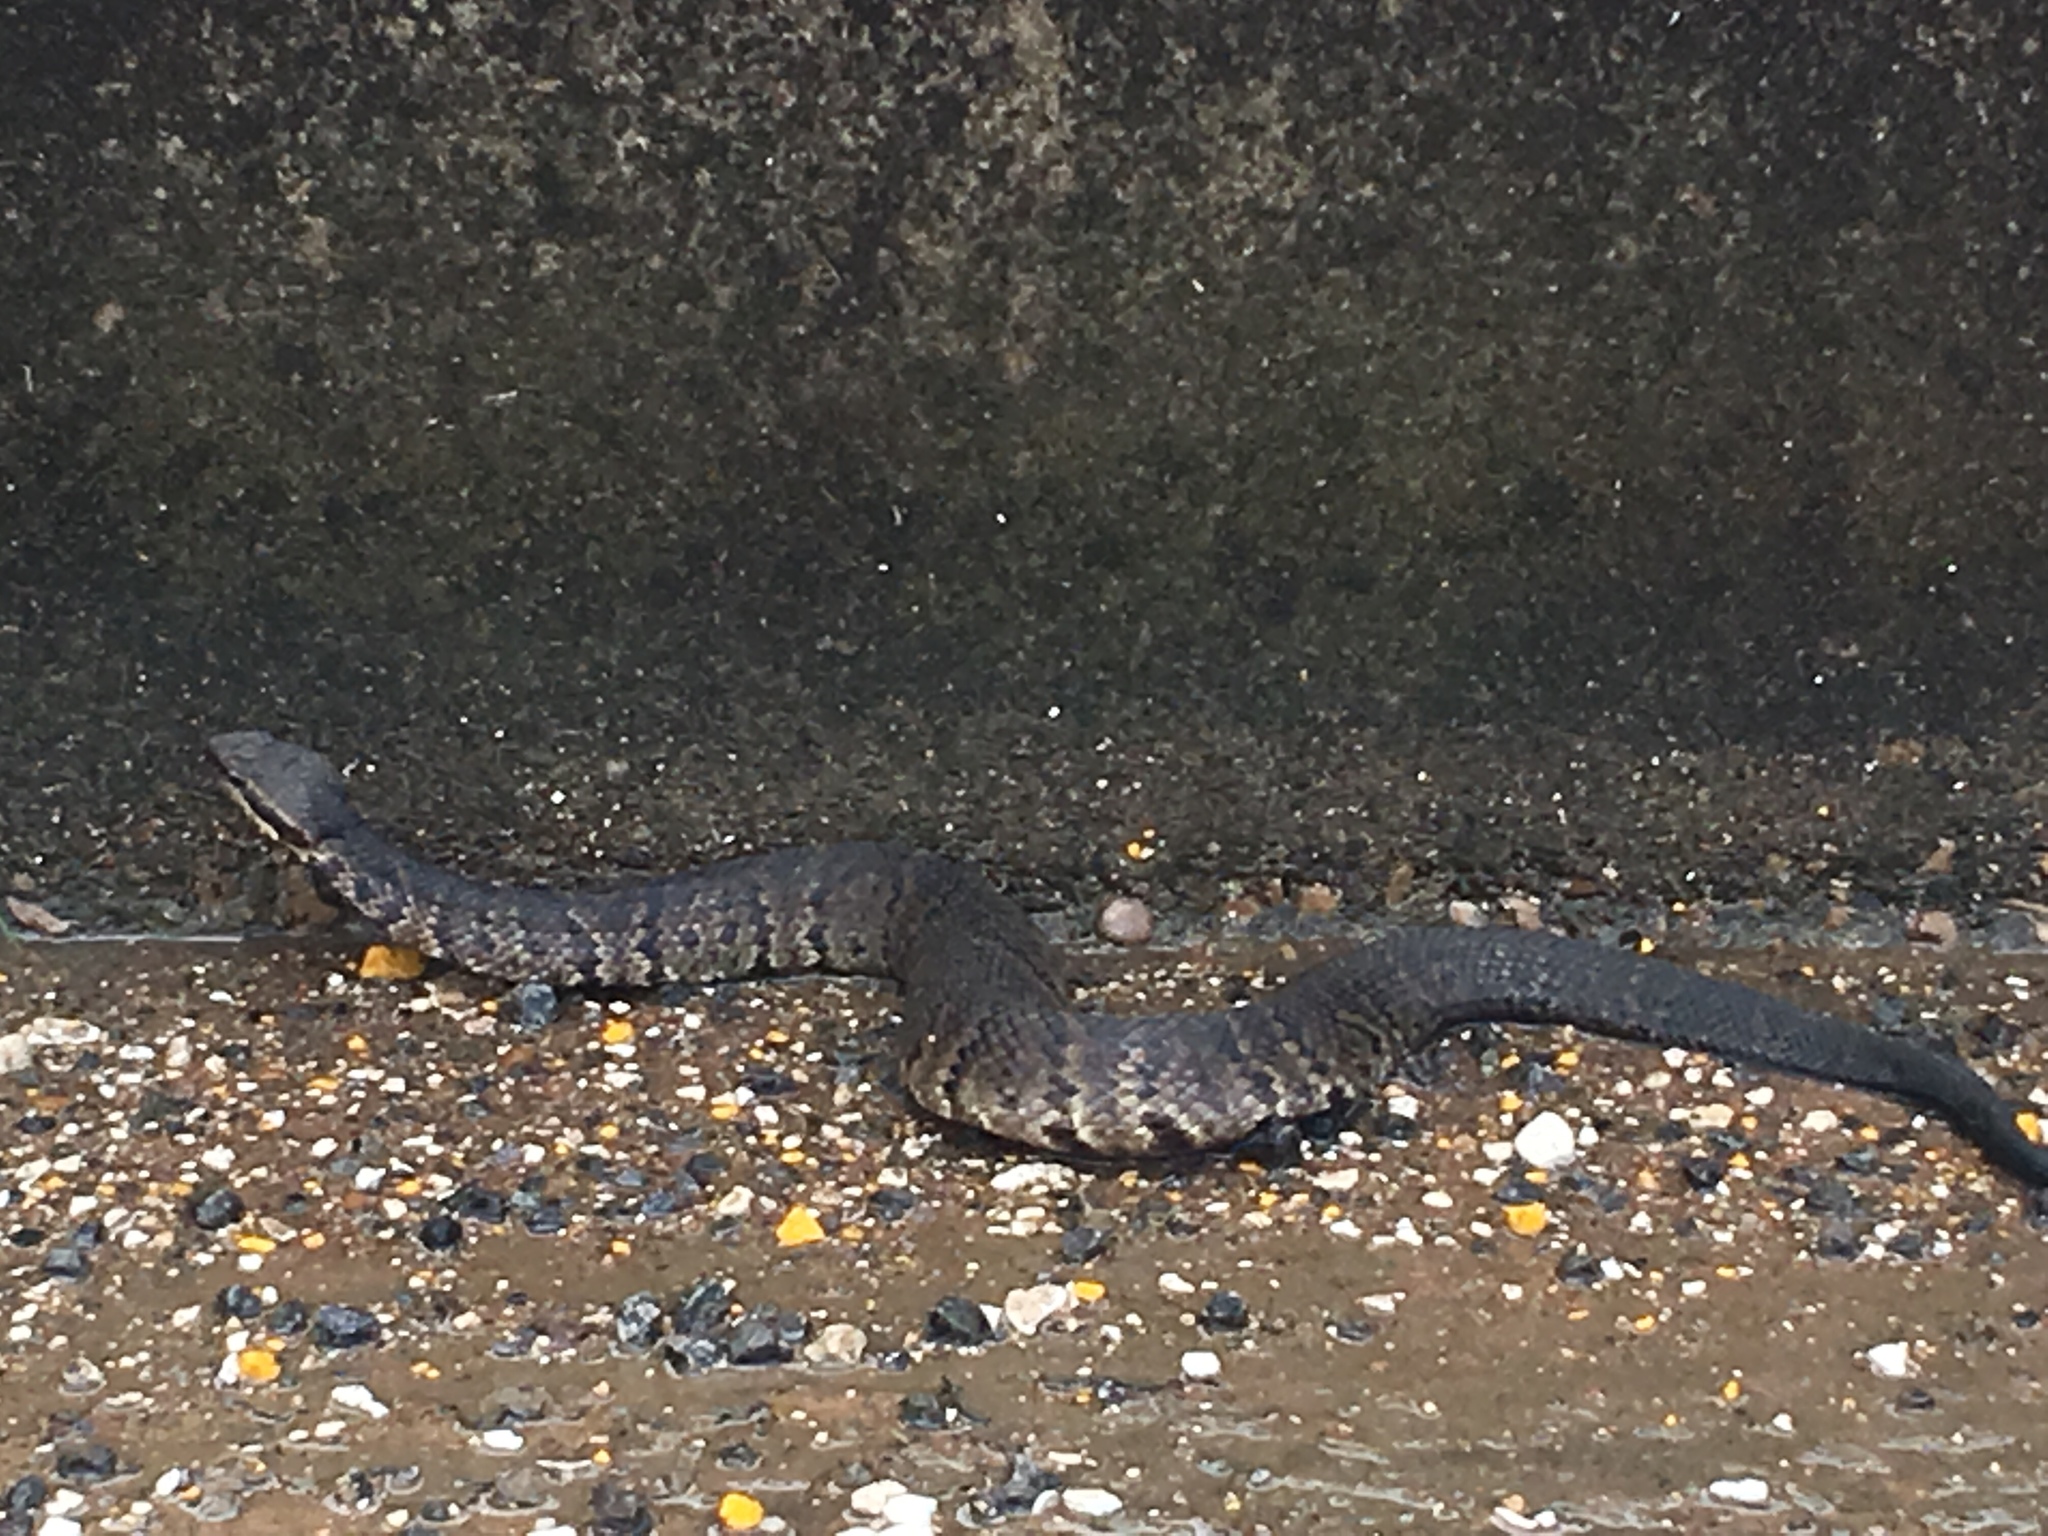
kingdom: Animalia
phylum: Chordata
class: Squamata
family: Viperidae
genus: Agkistrodon
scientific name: Agkistrodon piscivorus
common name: Cottonmouth
